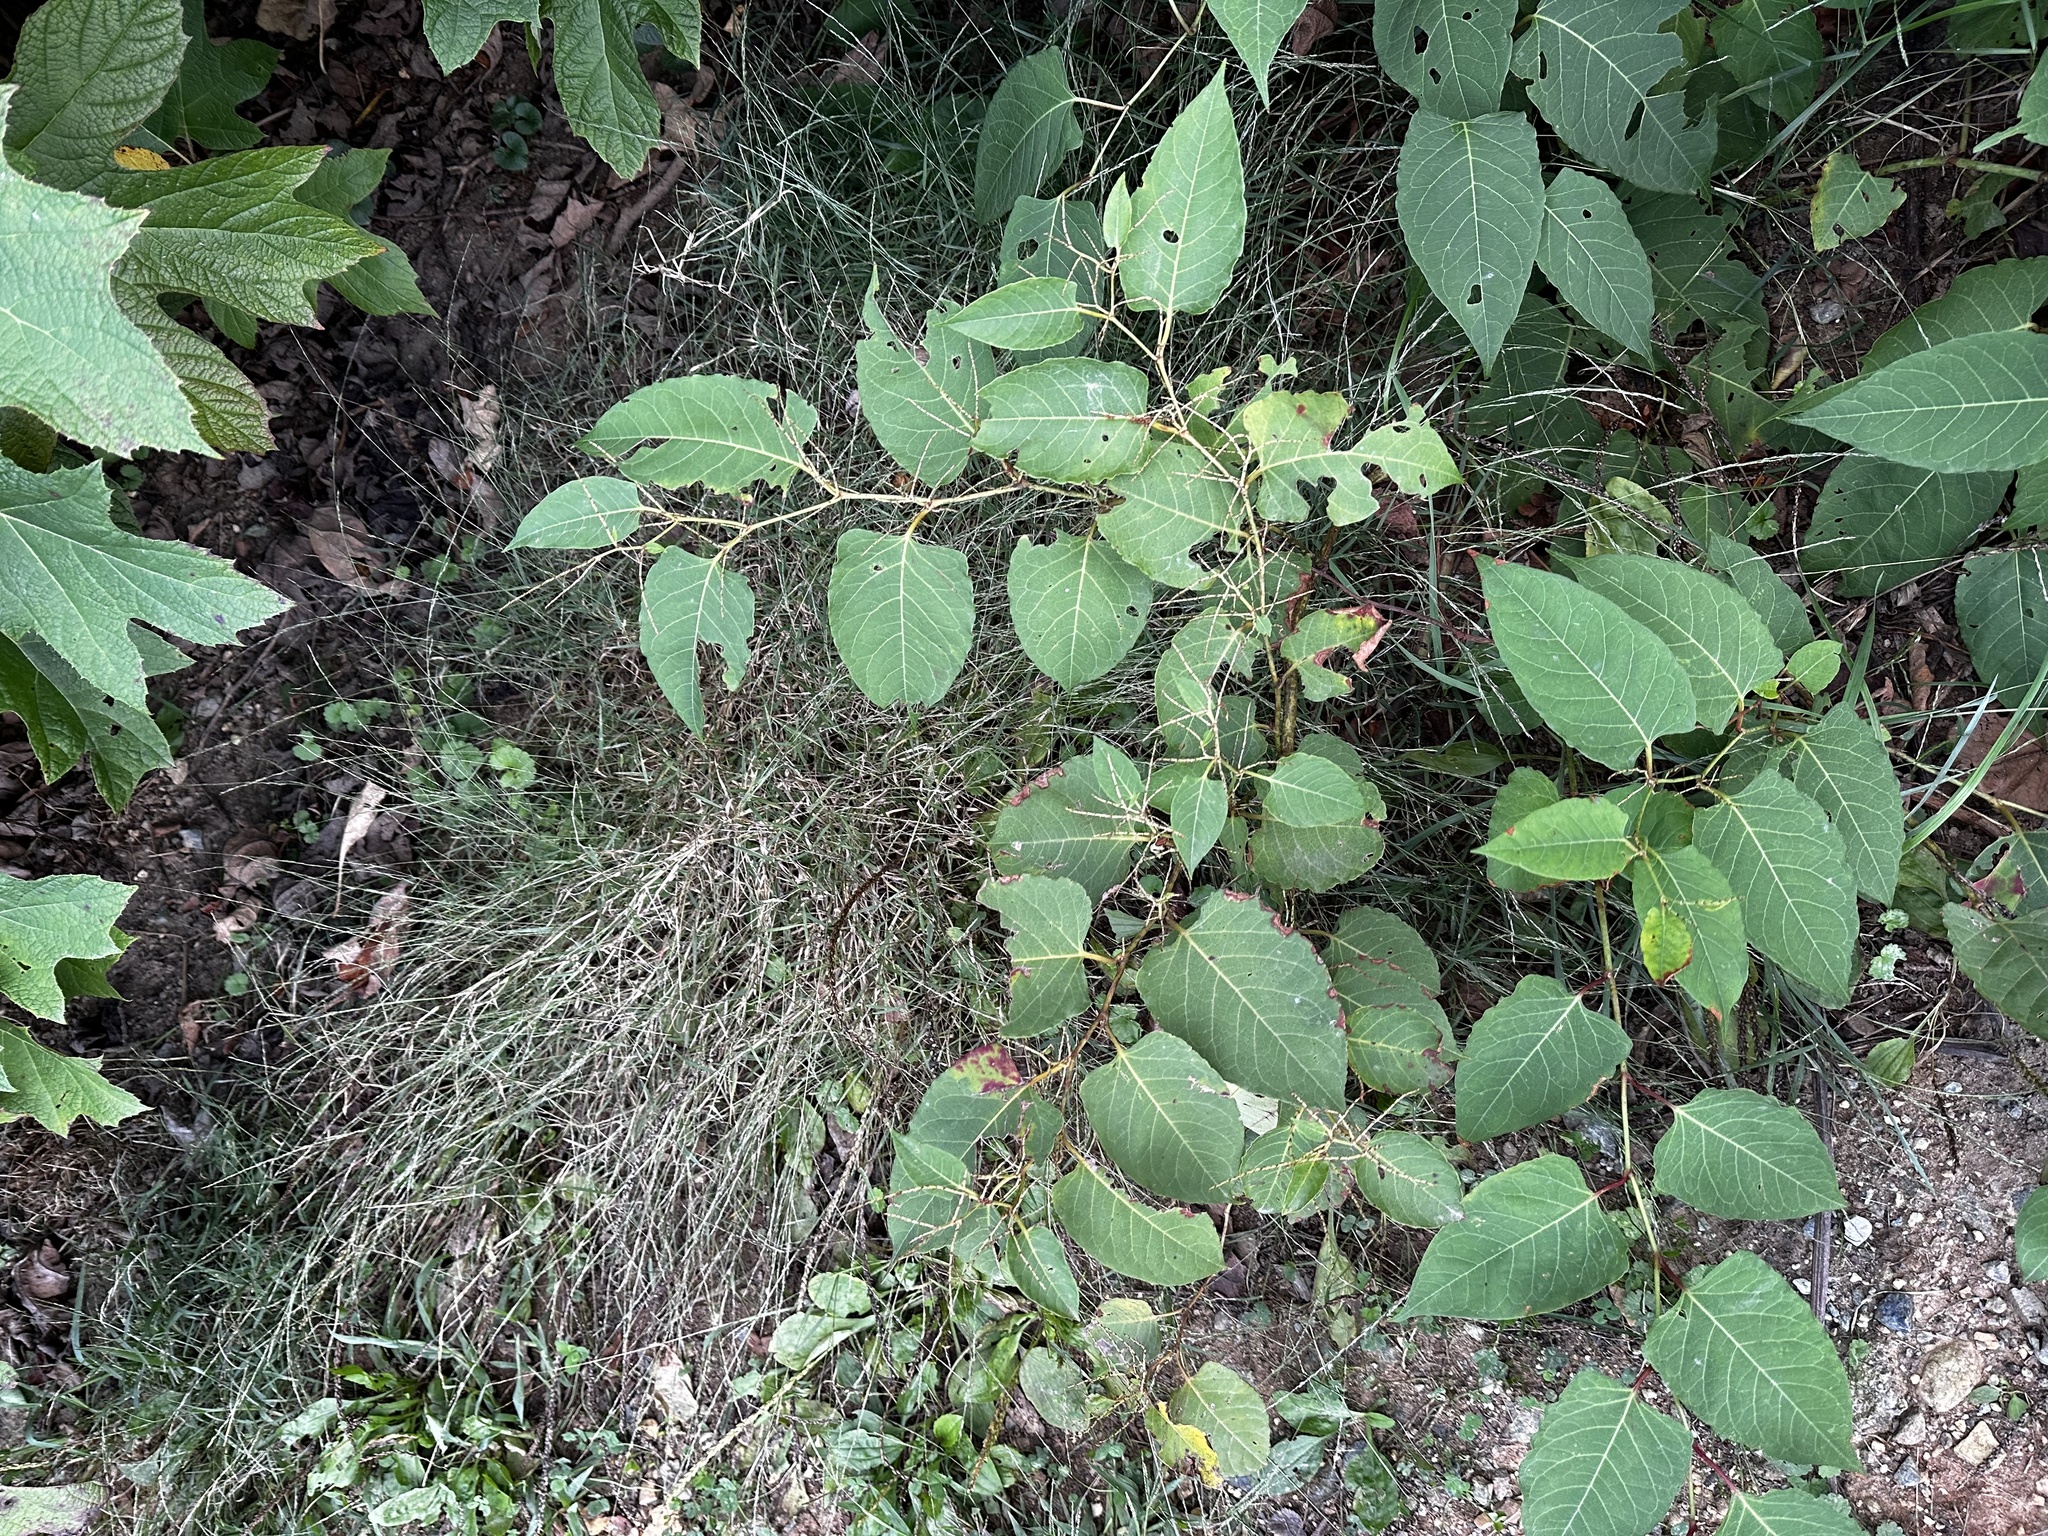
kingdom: Plantae
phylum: Tracheophyta
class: Magnoliopsida
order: Caryophyllales
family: Polygonaceae
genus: Reynoutria
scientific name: Reynoutria japonica
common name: Japanese knotweed
